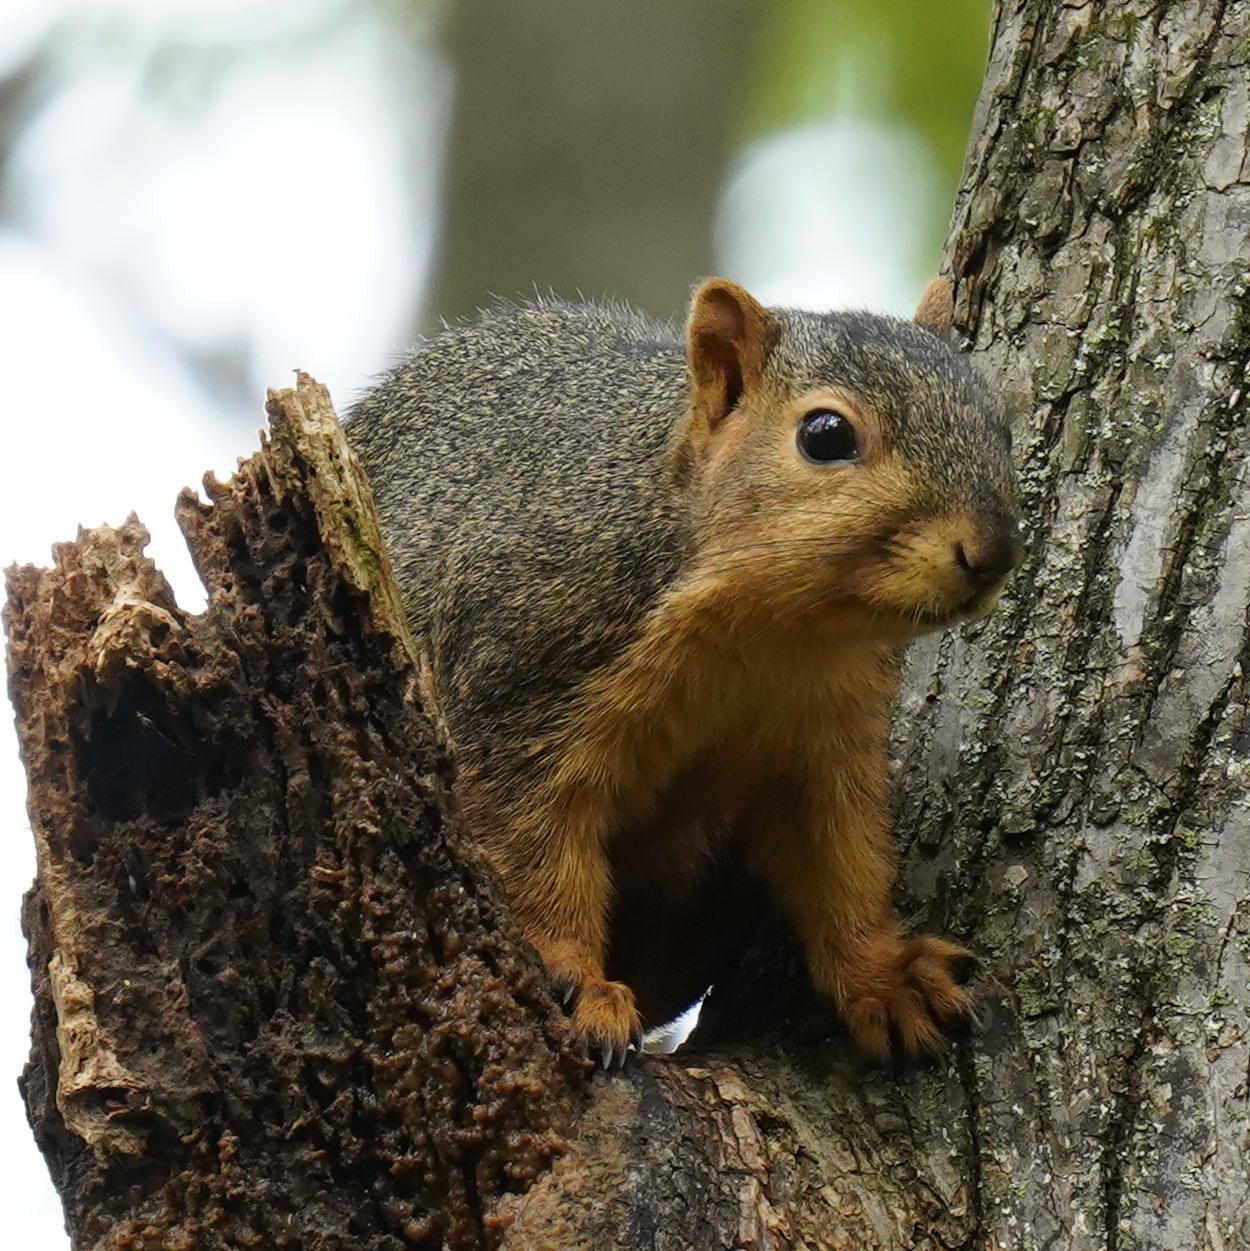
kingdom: Animalia
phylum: Chordata
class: Mammalia
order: Rodentia
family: Sciuridae
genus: Sciurus
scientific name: Sciurus niger
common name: Fox squirrel
